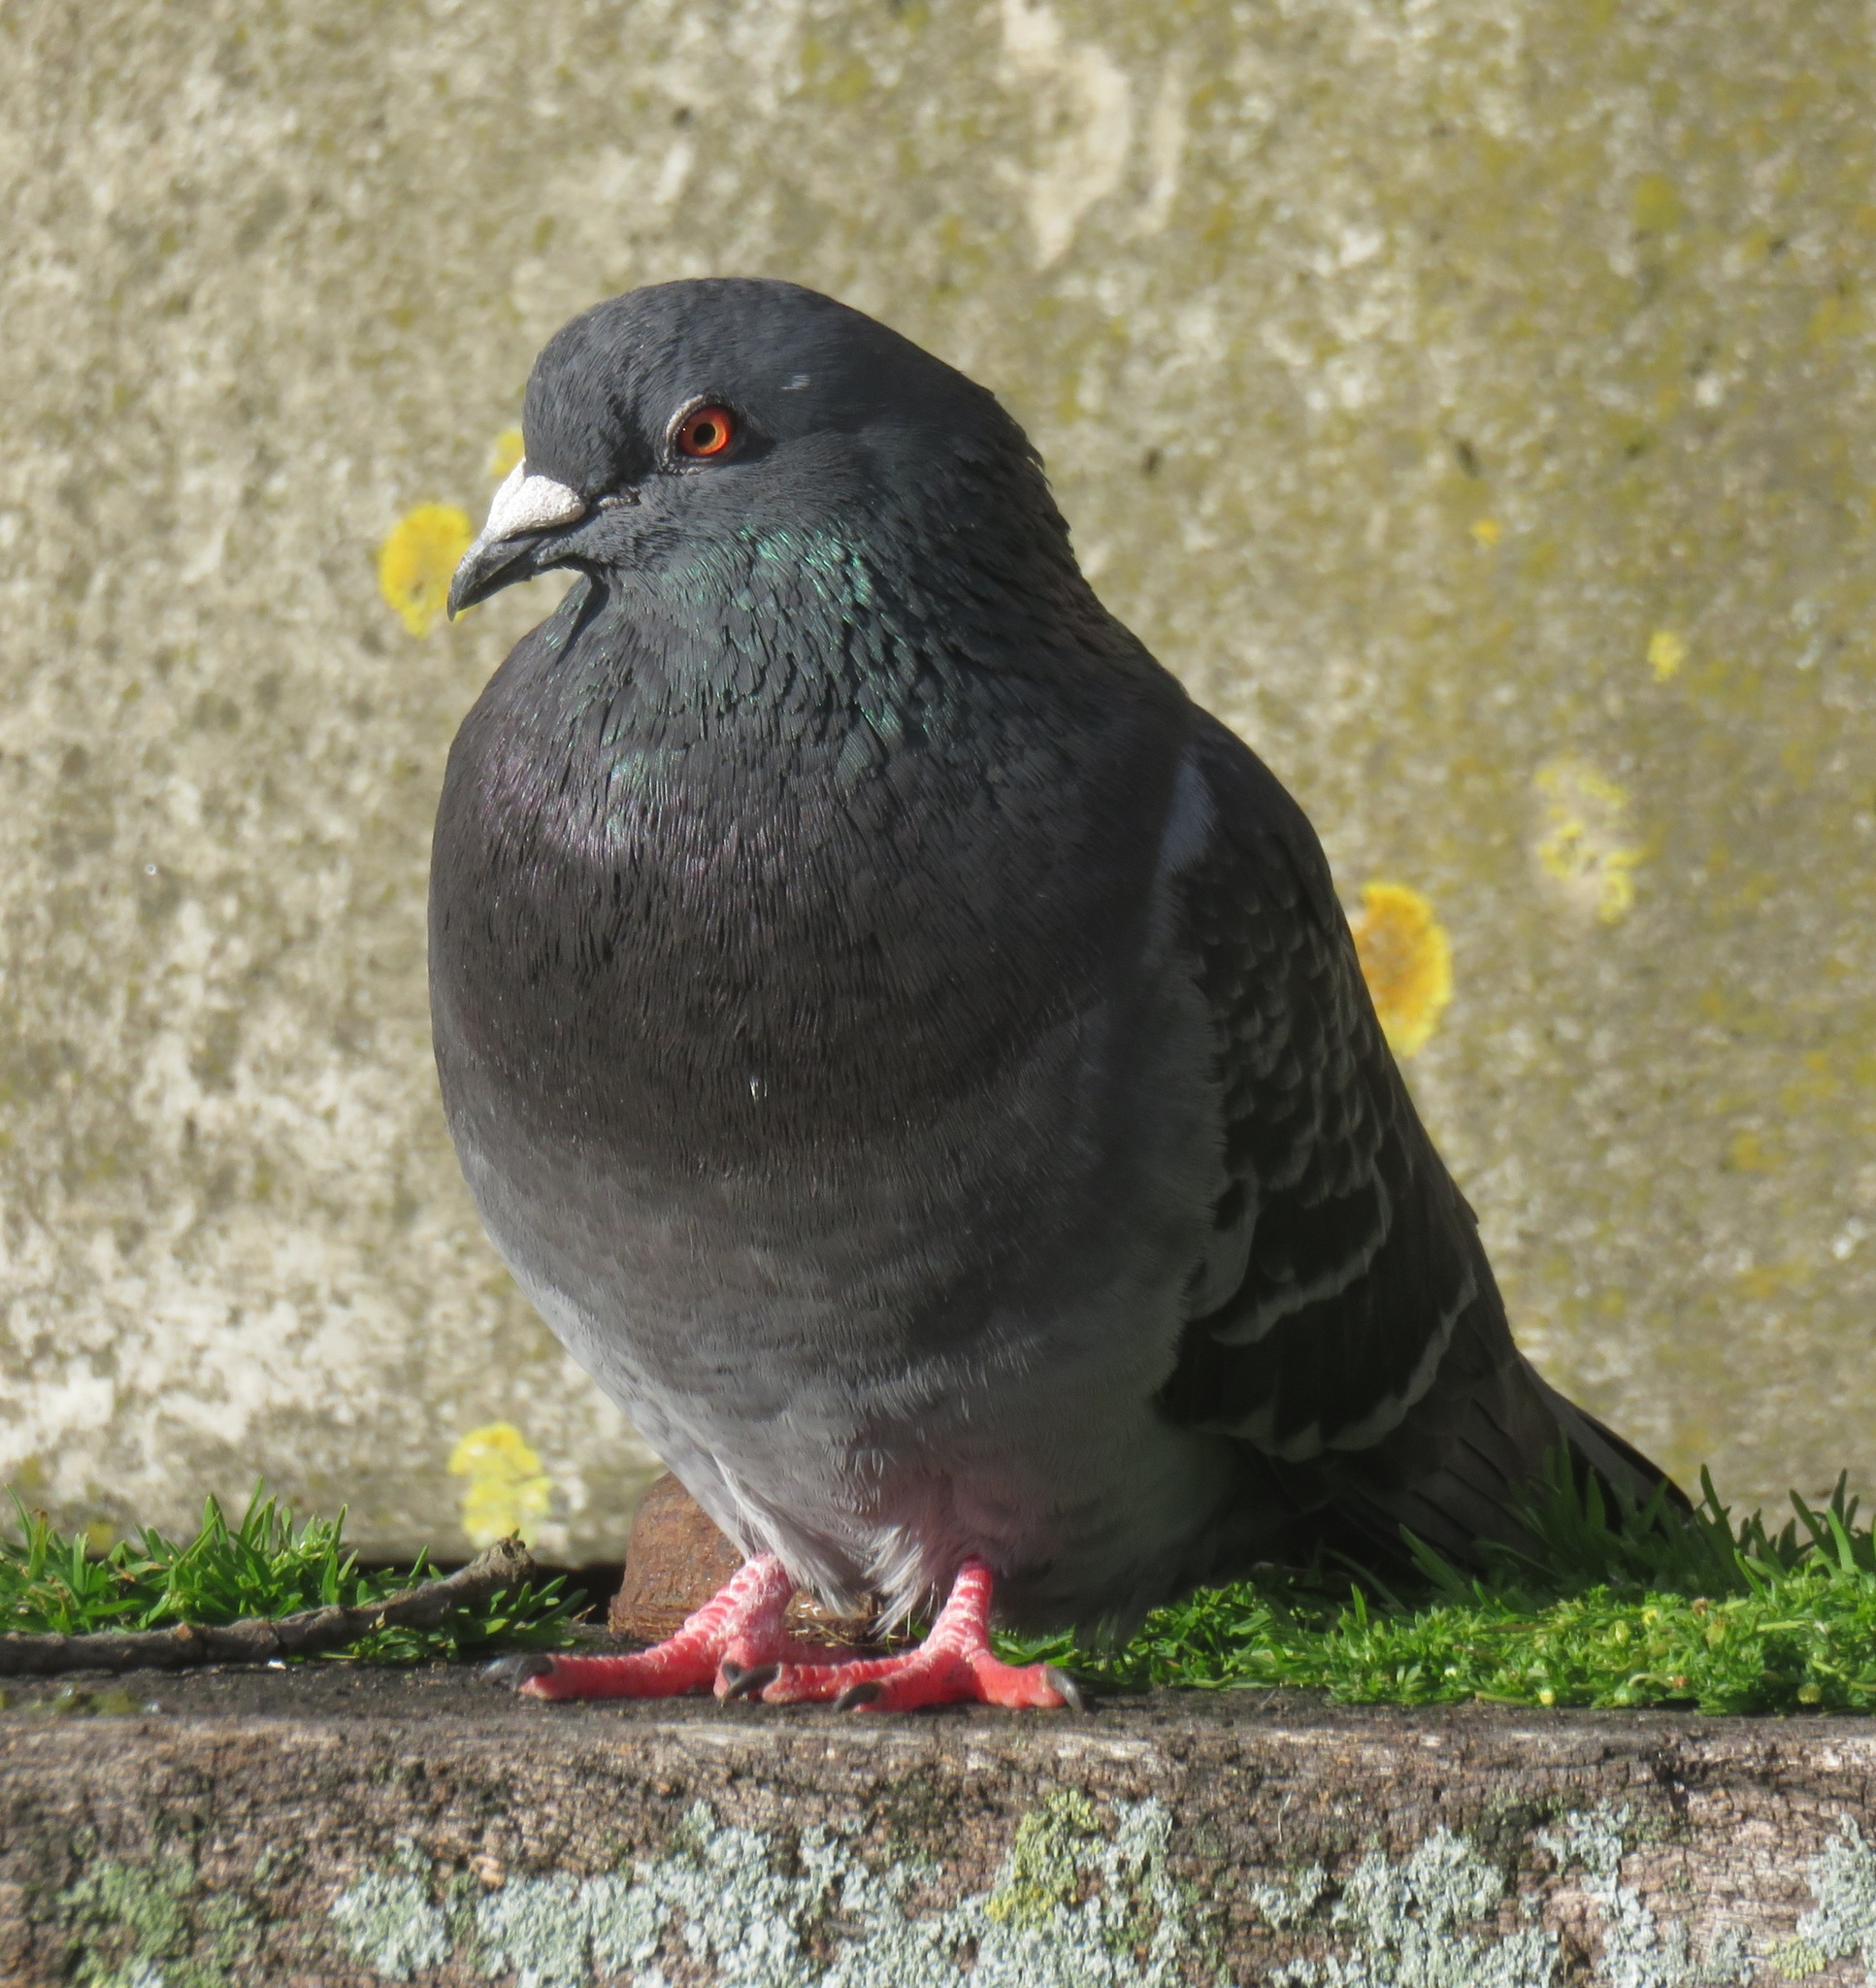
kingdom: Animalia
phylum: Chordata
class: Aves
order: Columbiformes
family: Columbidae
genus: Columba
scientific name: Columba livia
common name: Rock pigeon
